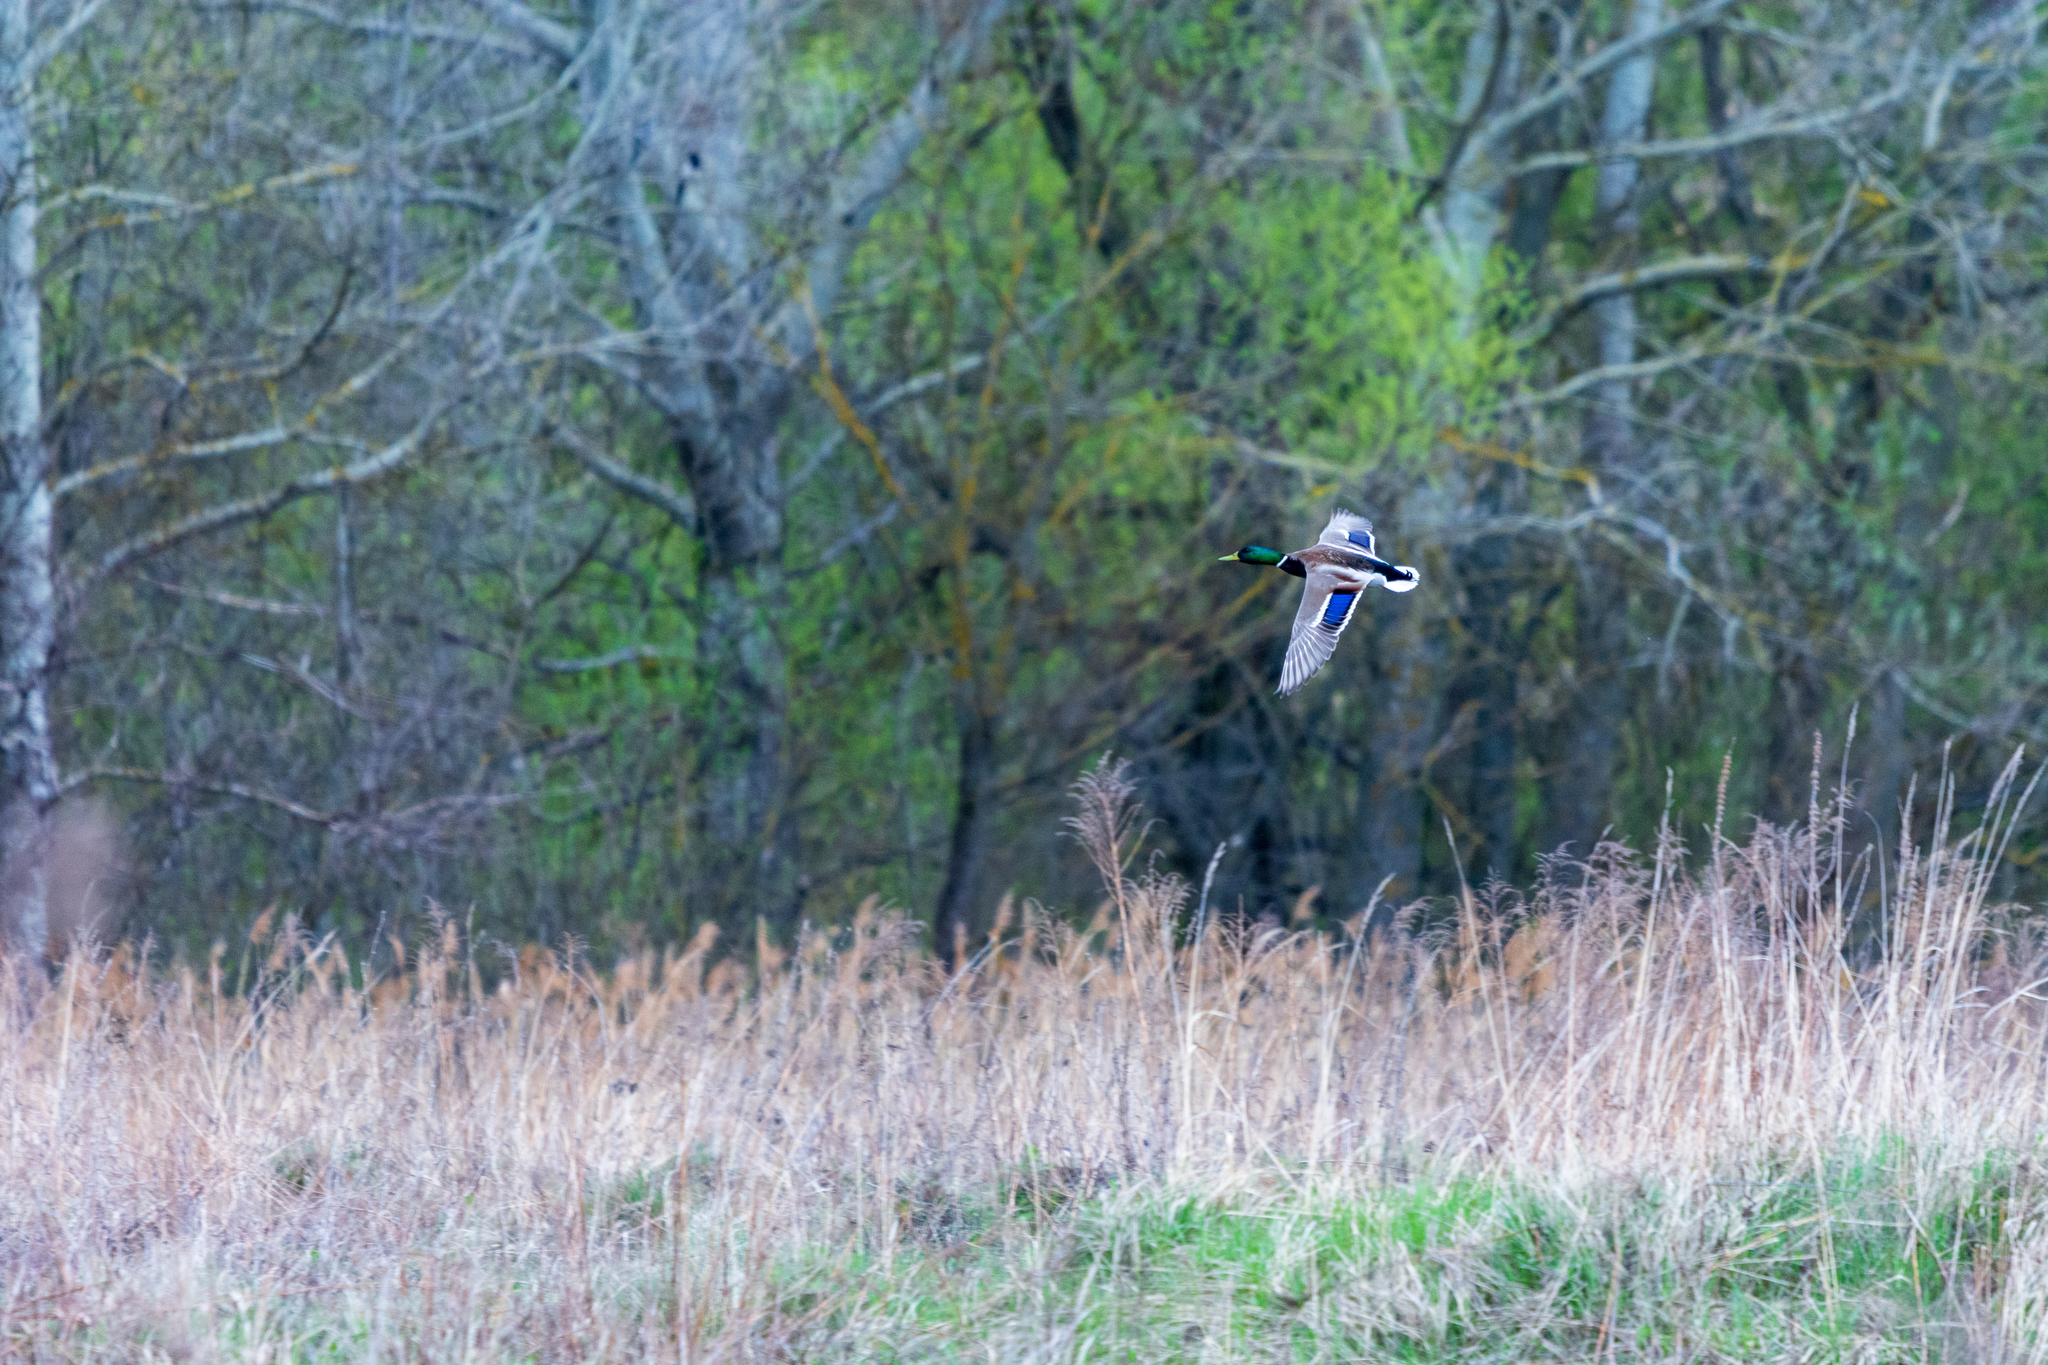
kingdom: Animalia
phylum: Chordata
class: Aves
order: Anseriformes
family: Anatidae
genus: Anas
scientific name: Anas platyrhynchos
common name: Mallard
